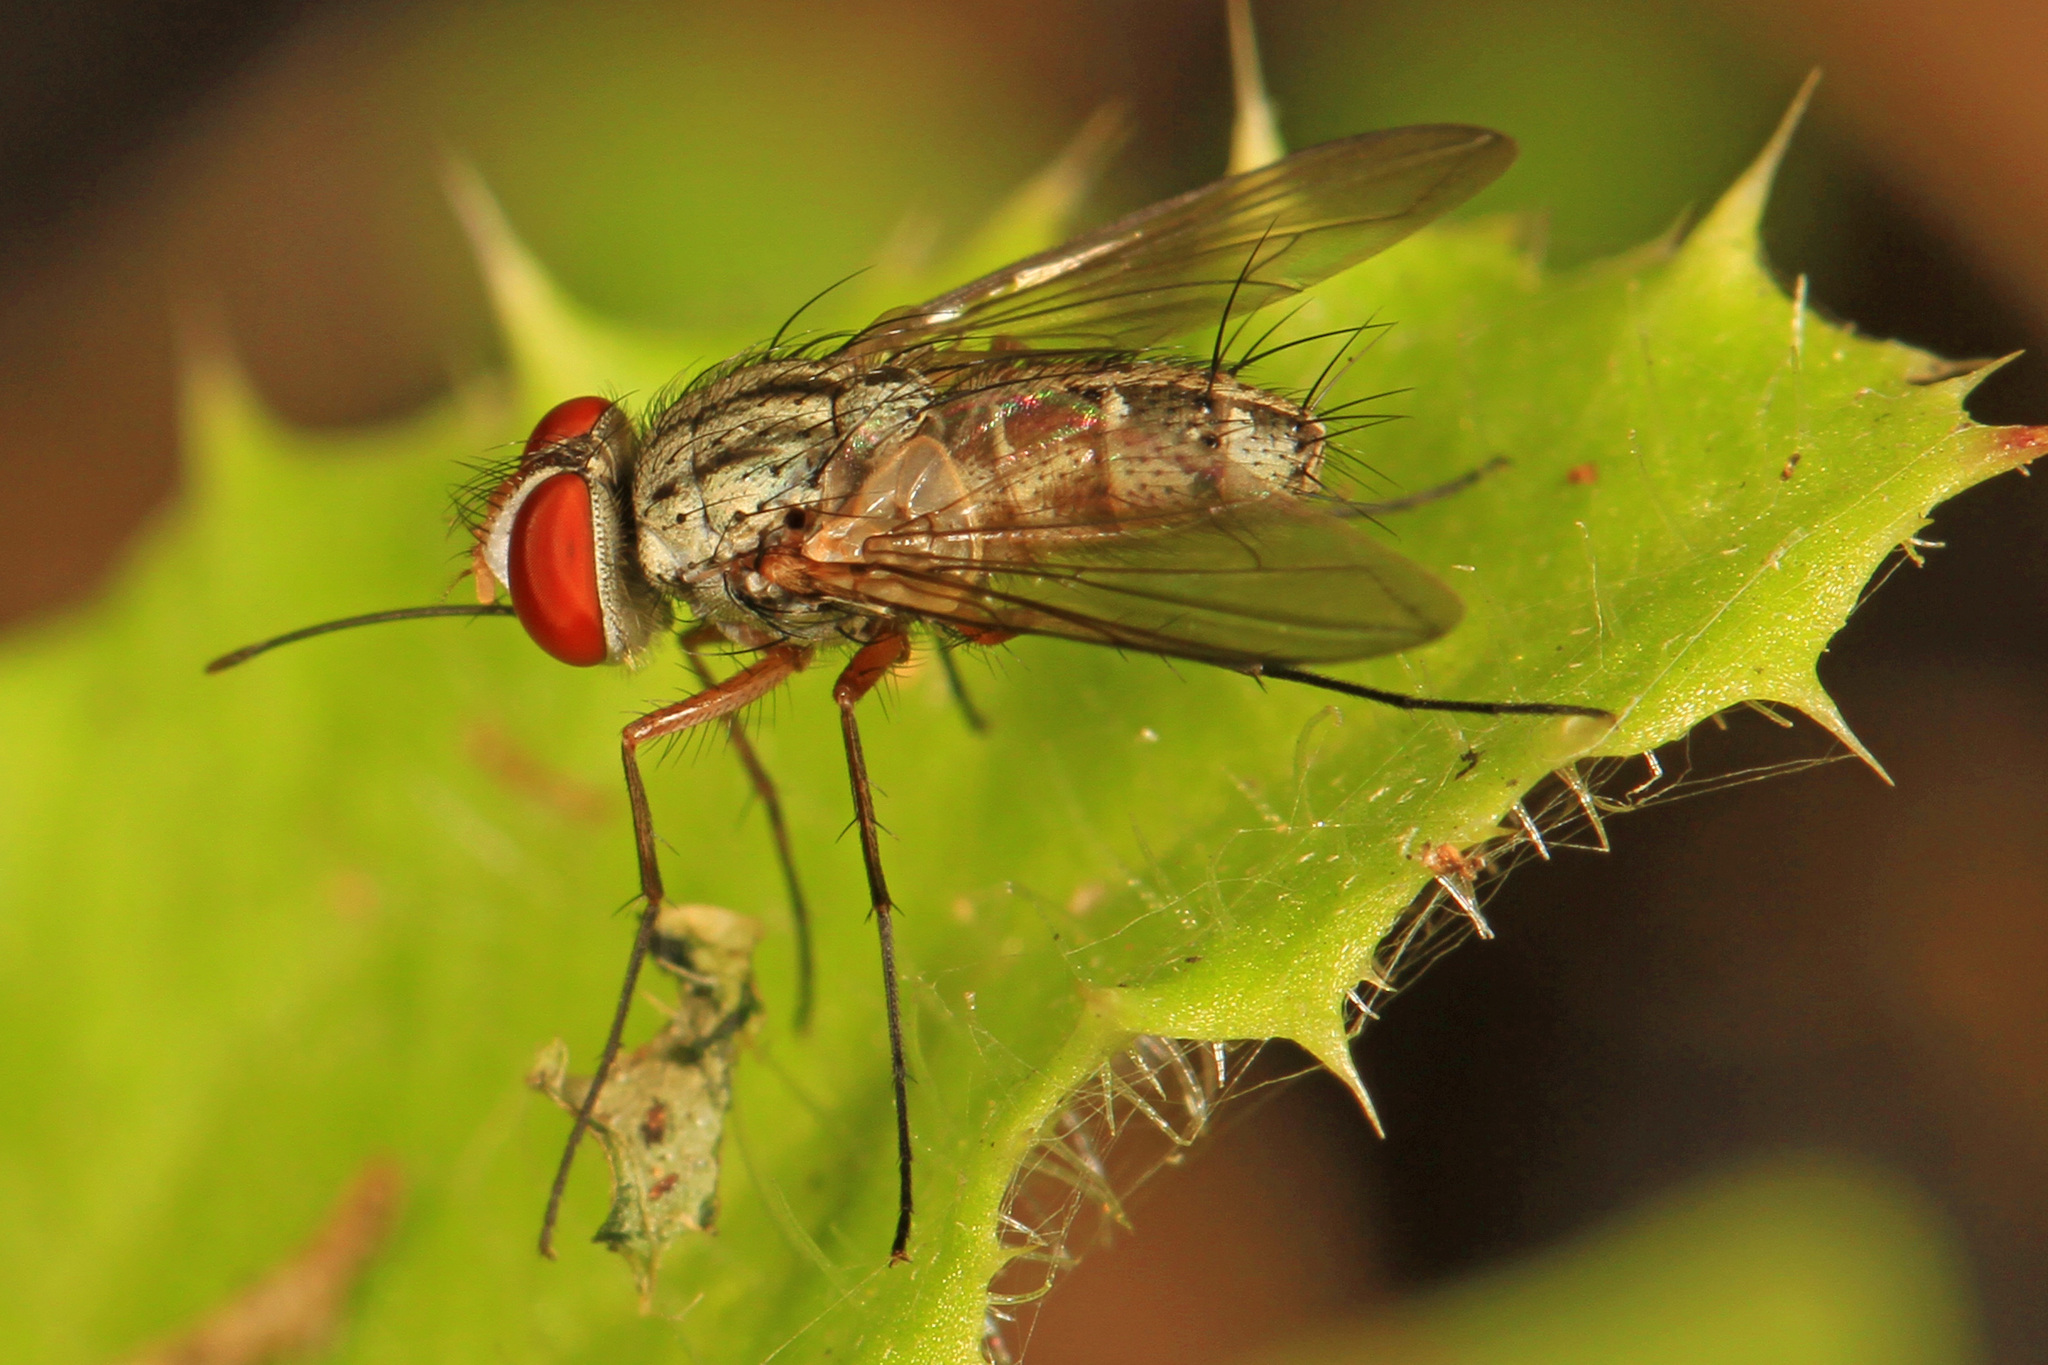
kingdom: Animalia
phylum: Arthropoda
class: Insecta
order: Diptera
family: Tachinidae
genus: Prosenoides
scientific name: Prosenoides flavipes
